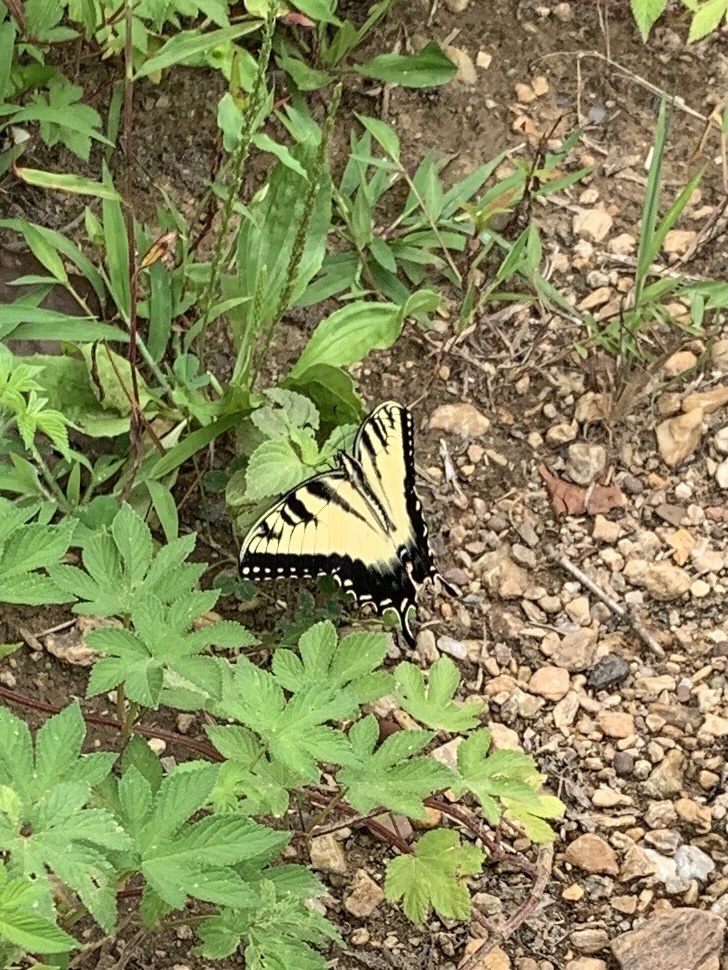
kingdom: Animalia
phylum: Arthropoda
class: Insecta
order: Lepidoptera
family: Papilionidae
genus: Papilio
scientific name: Papilio glaucus
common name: Tiger swallowtail
